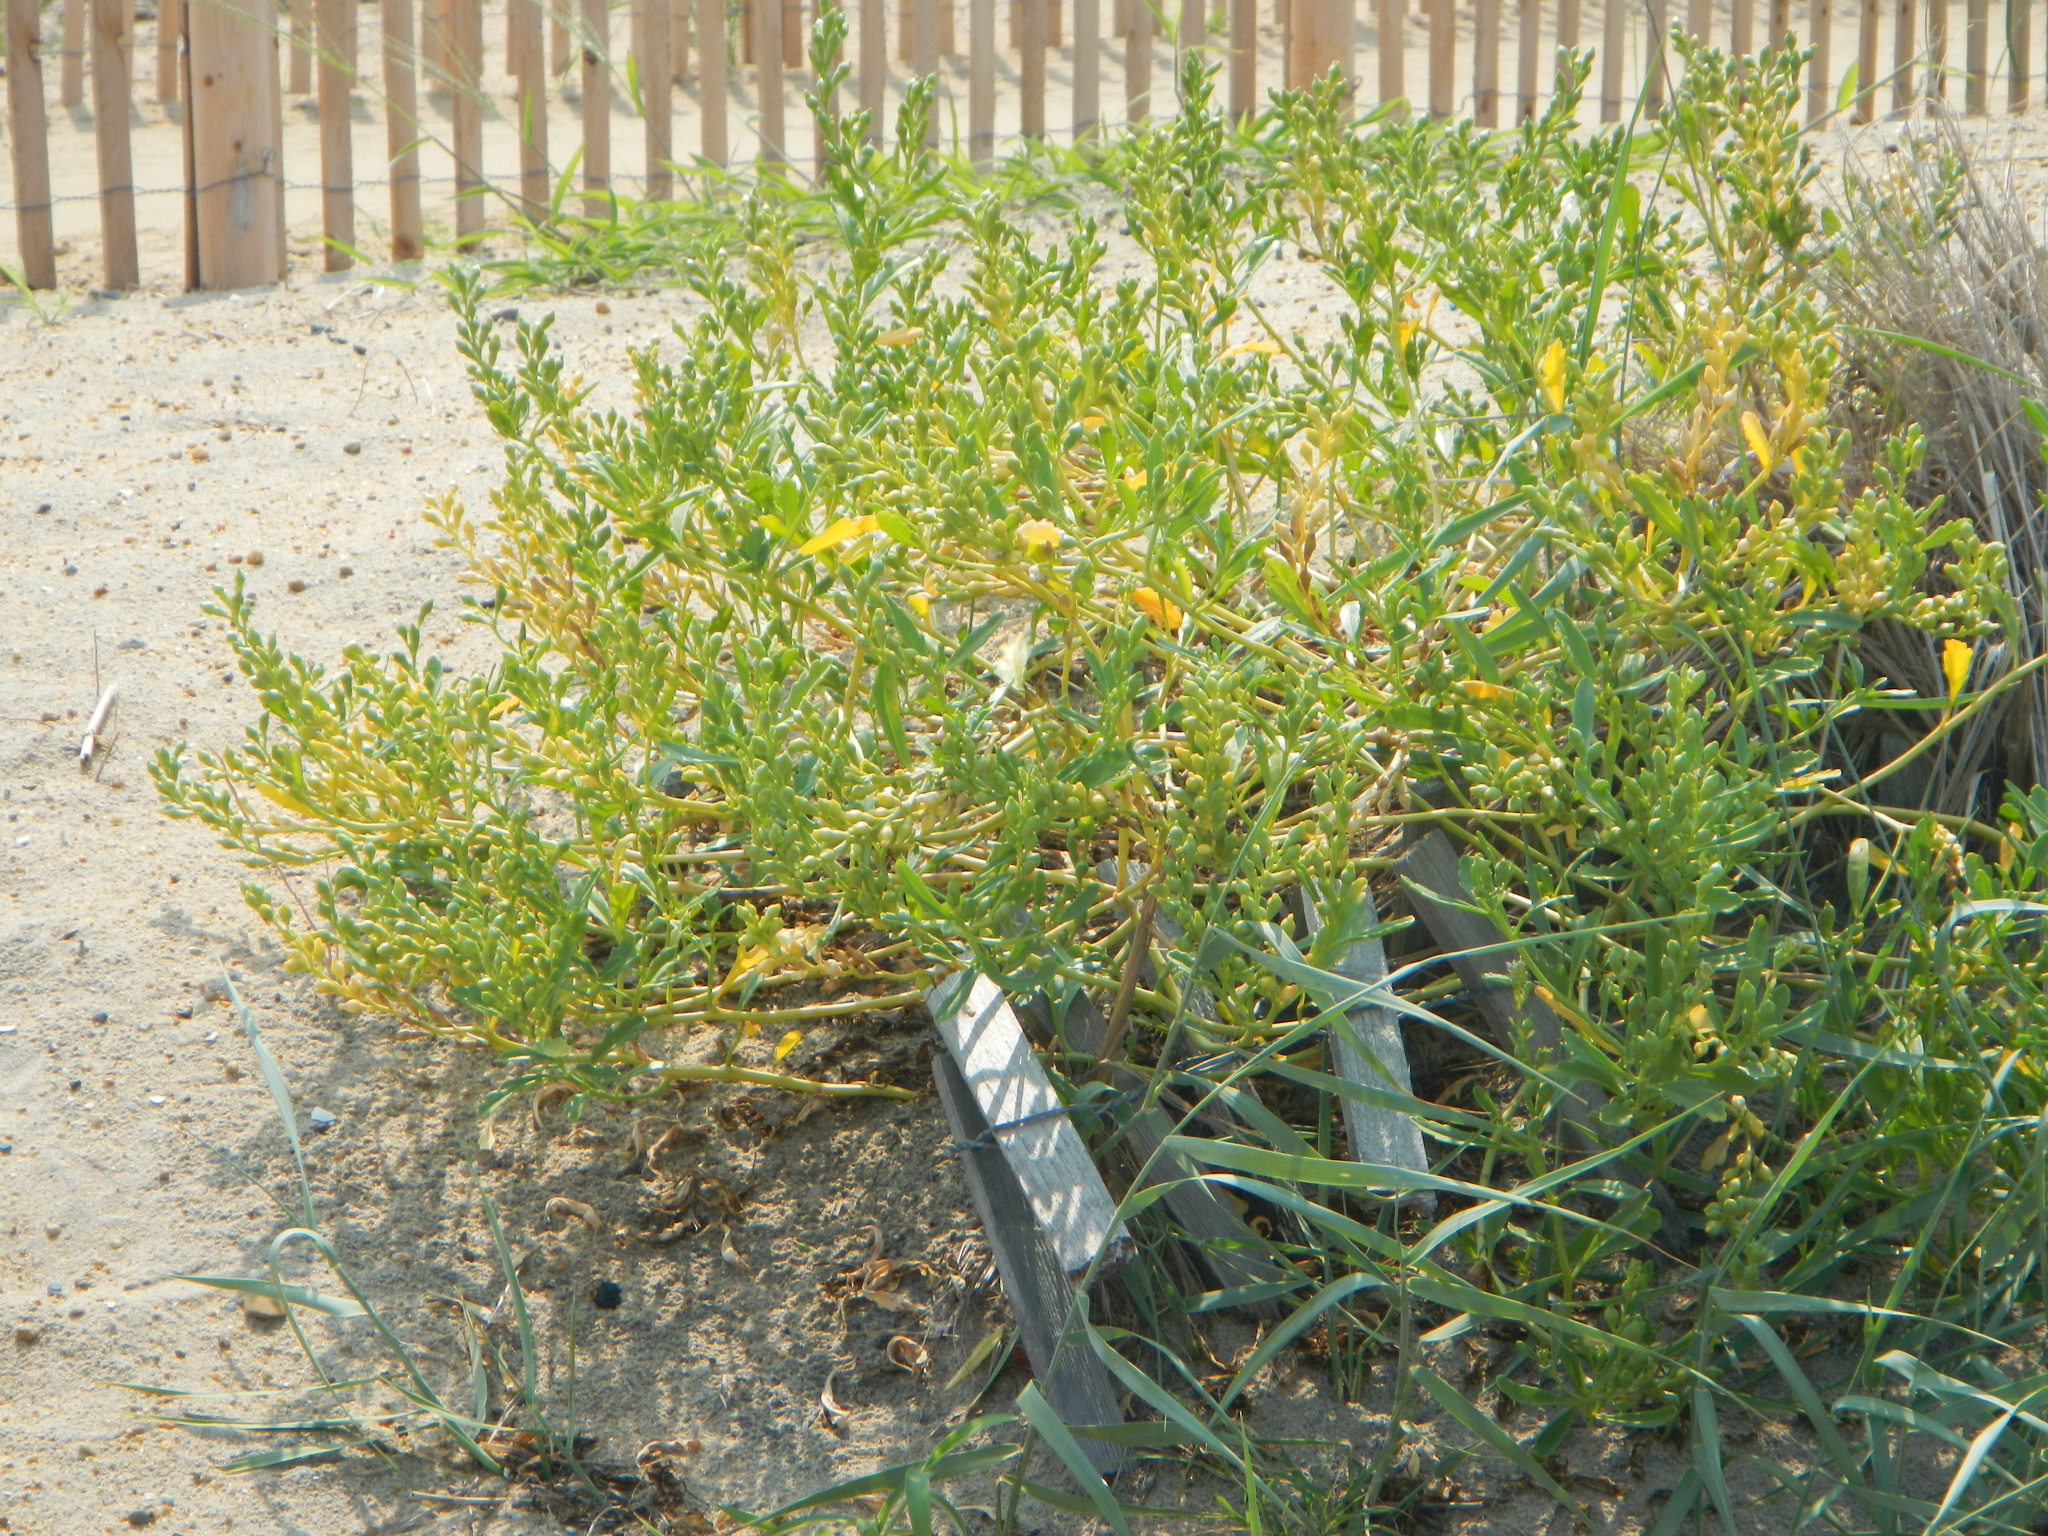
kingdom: Plantae
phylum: Tracheophyta
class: Magnoliopsida
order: Brassicales
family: Brassicaceae
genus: Cakile
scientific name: Cakile edentula
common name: American sea rocket
